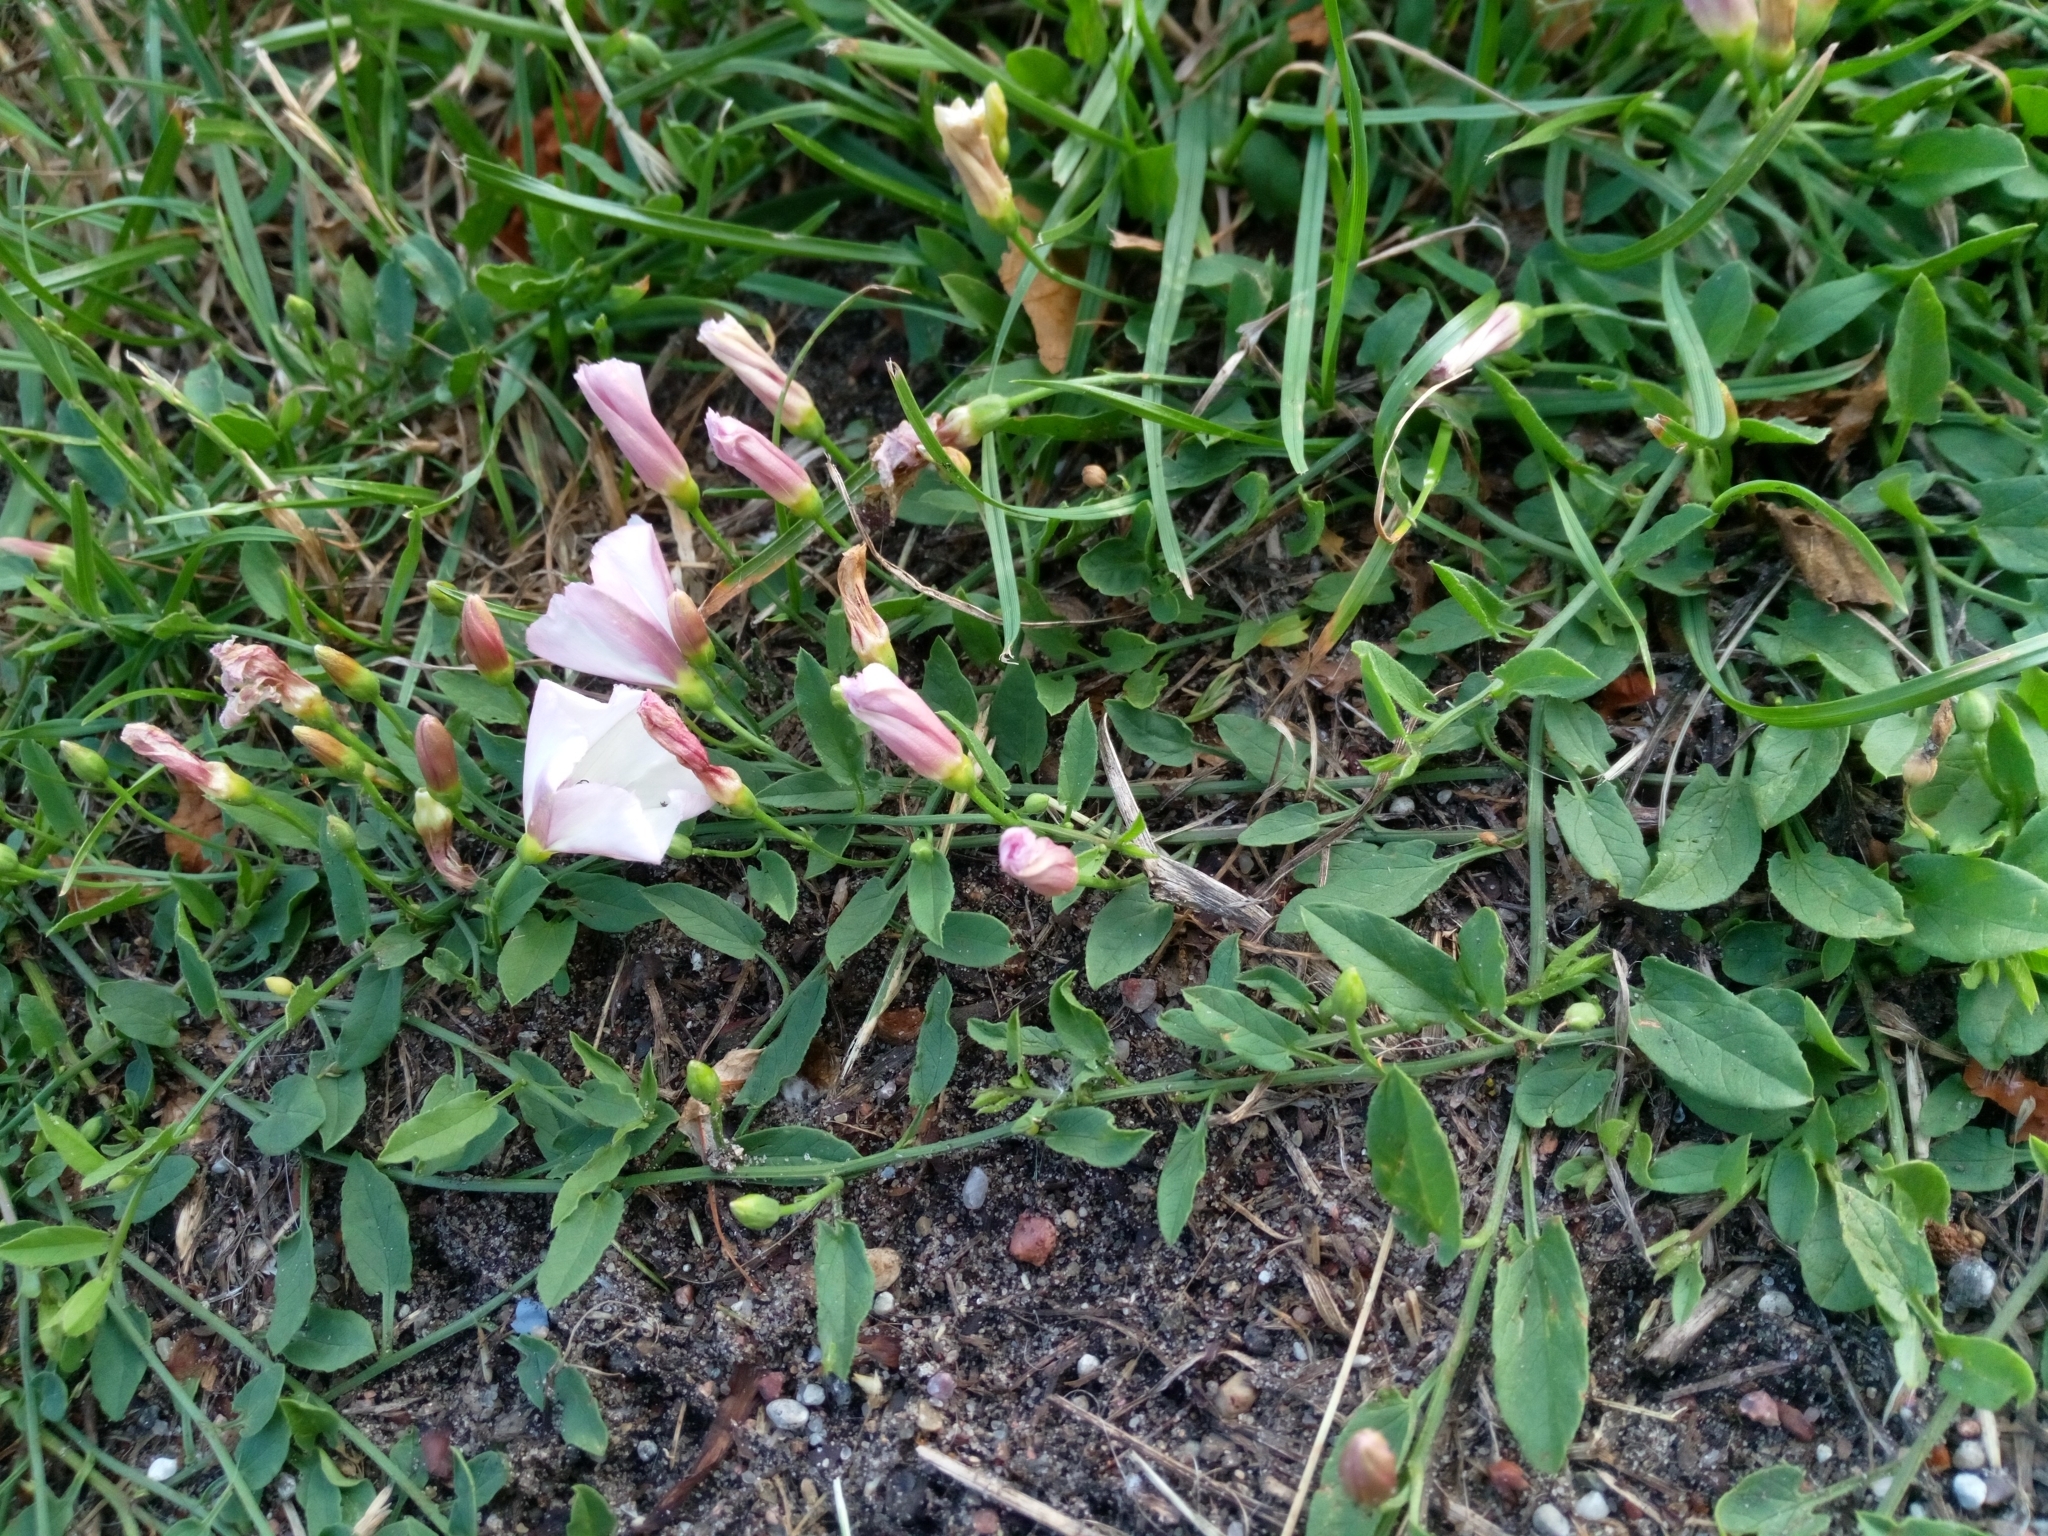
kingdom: Plantae
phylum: Tracheophyta
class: Magnoliopsida
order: Solanales
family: Convolvulaceae
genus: Convolvulus
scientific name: Convolvulus arvensis
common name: Field bindweed
